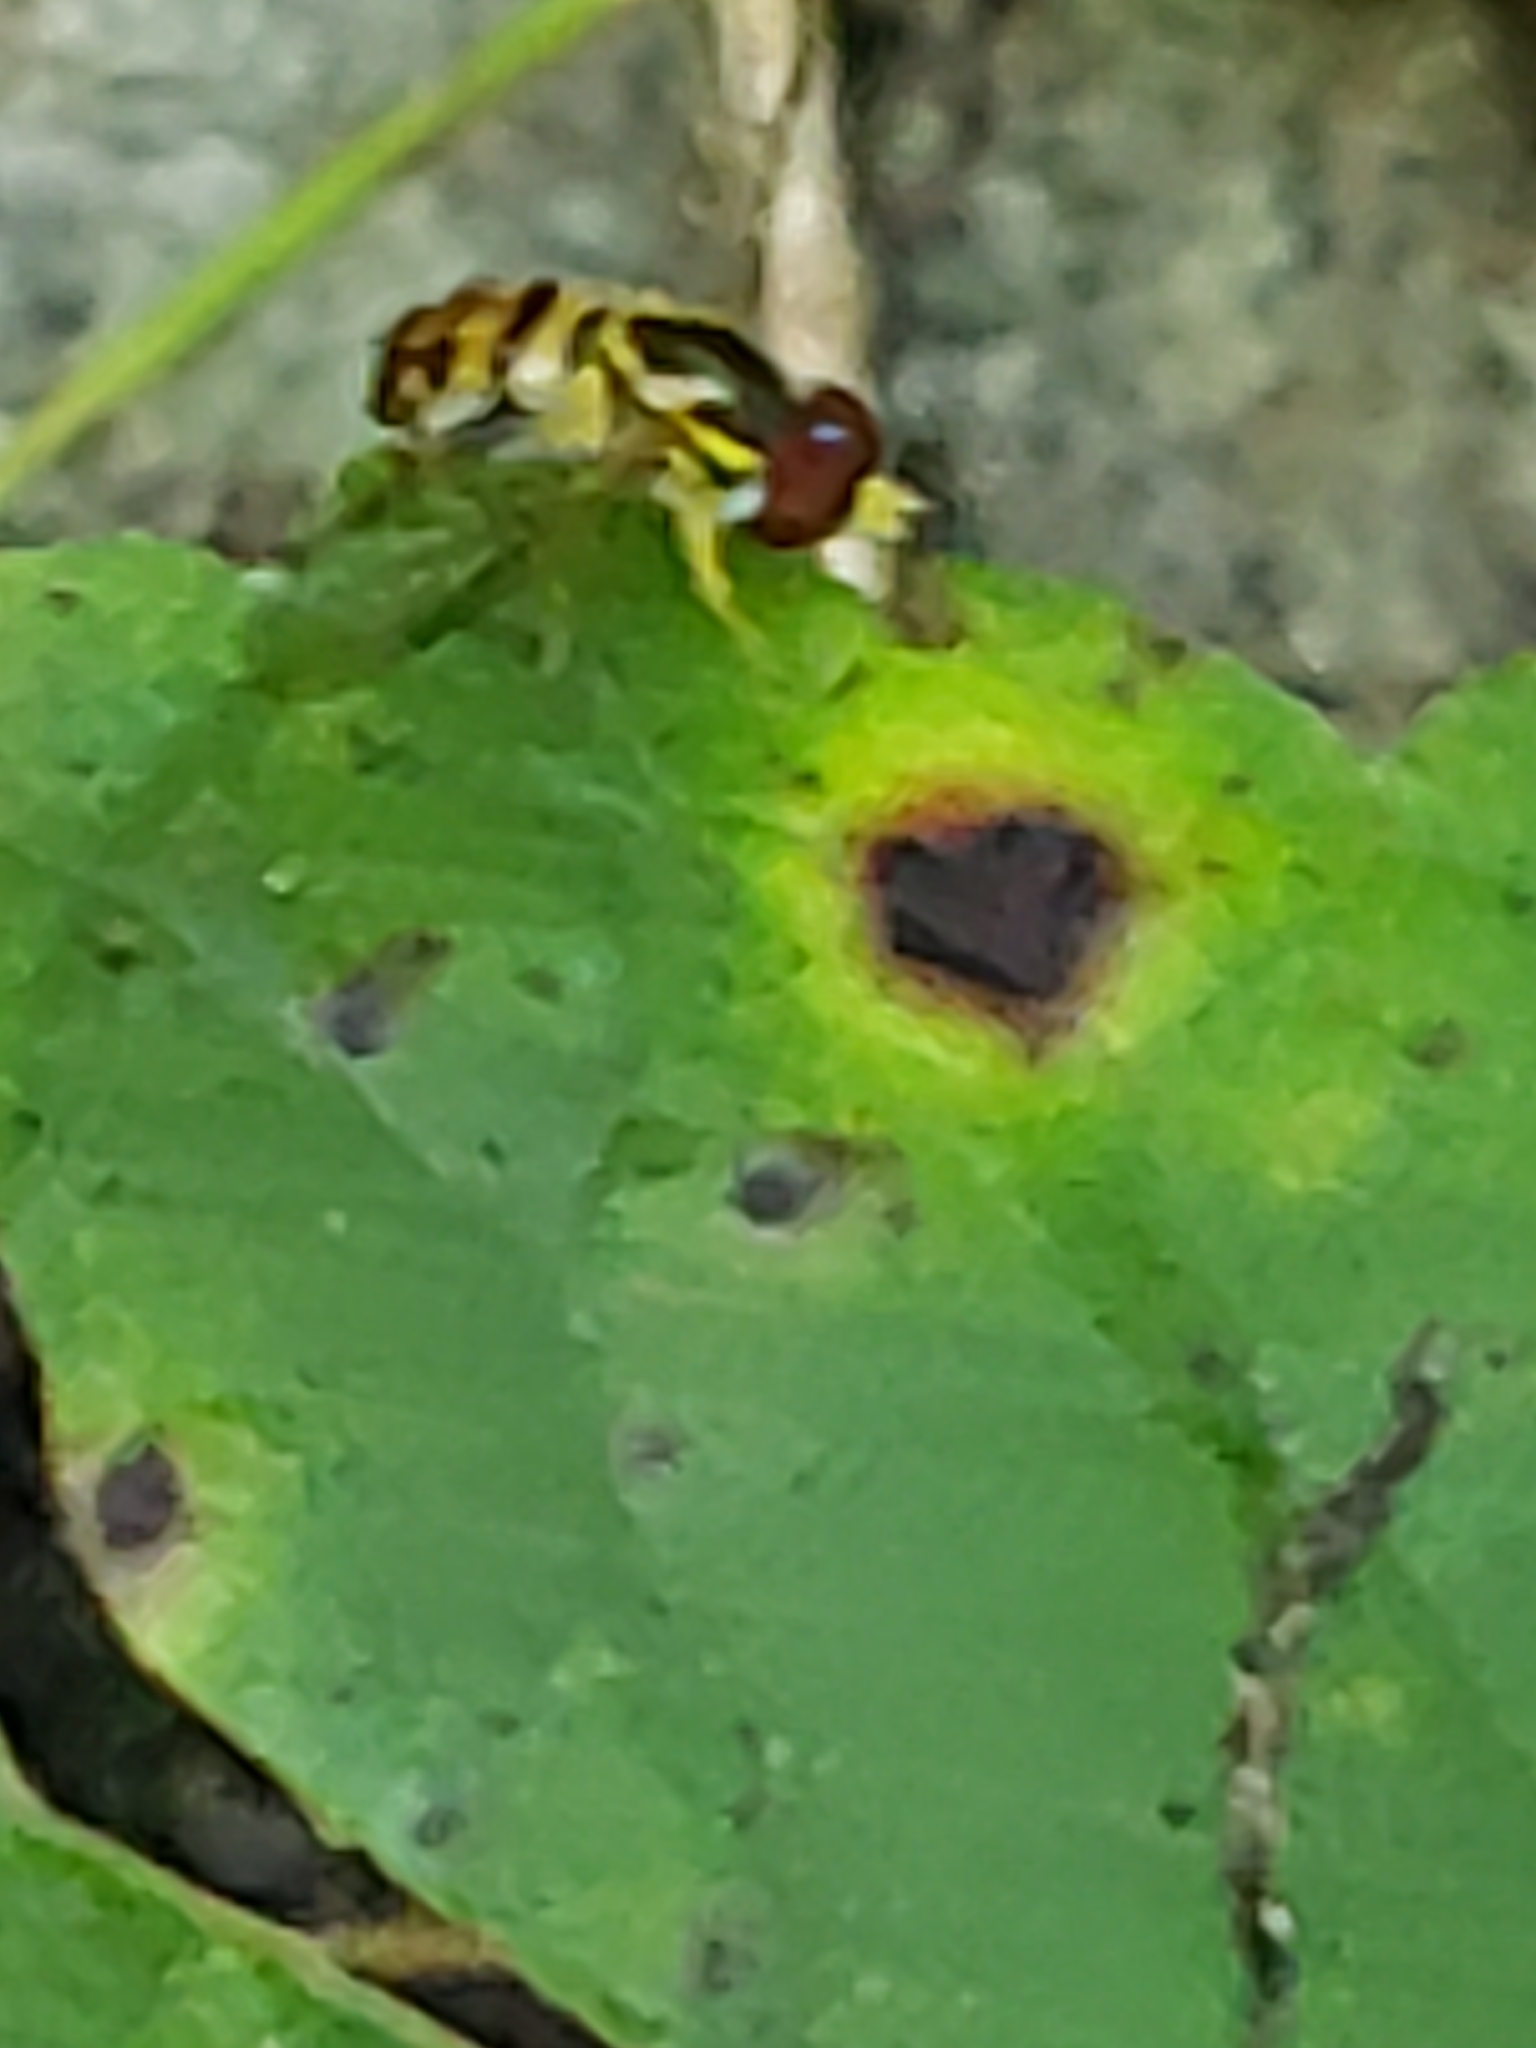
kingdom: Animalia
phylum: Arthropoda
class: Insecta
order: Diptera
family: Syrphidae
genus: Toxomerus
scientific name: Toxomerus geminatus
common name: Eastern calligrapher
